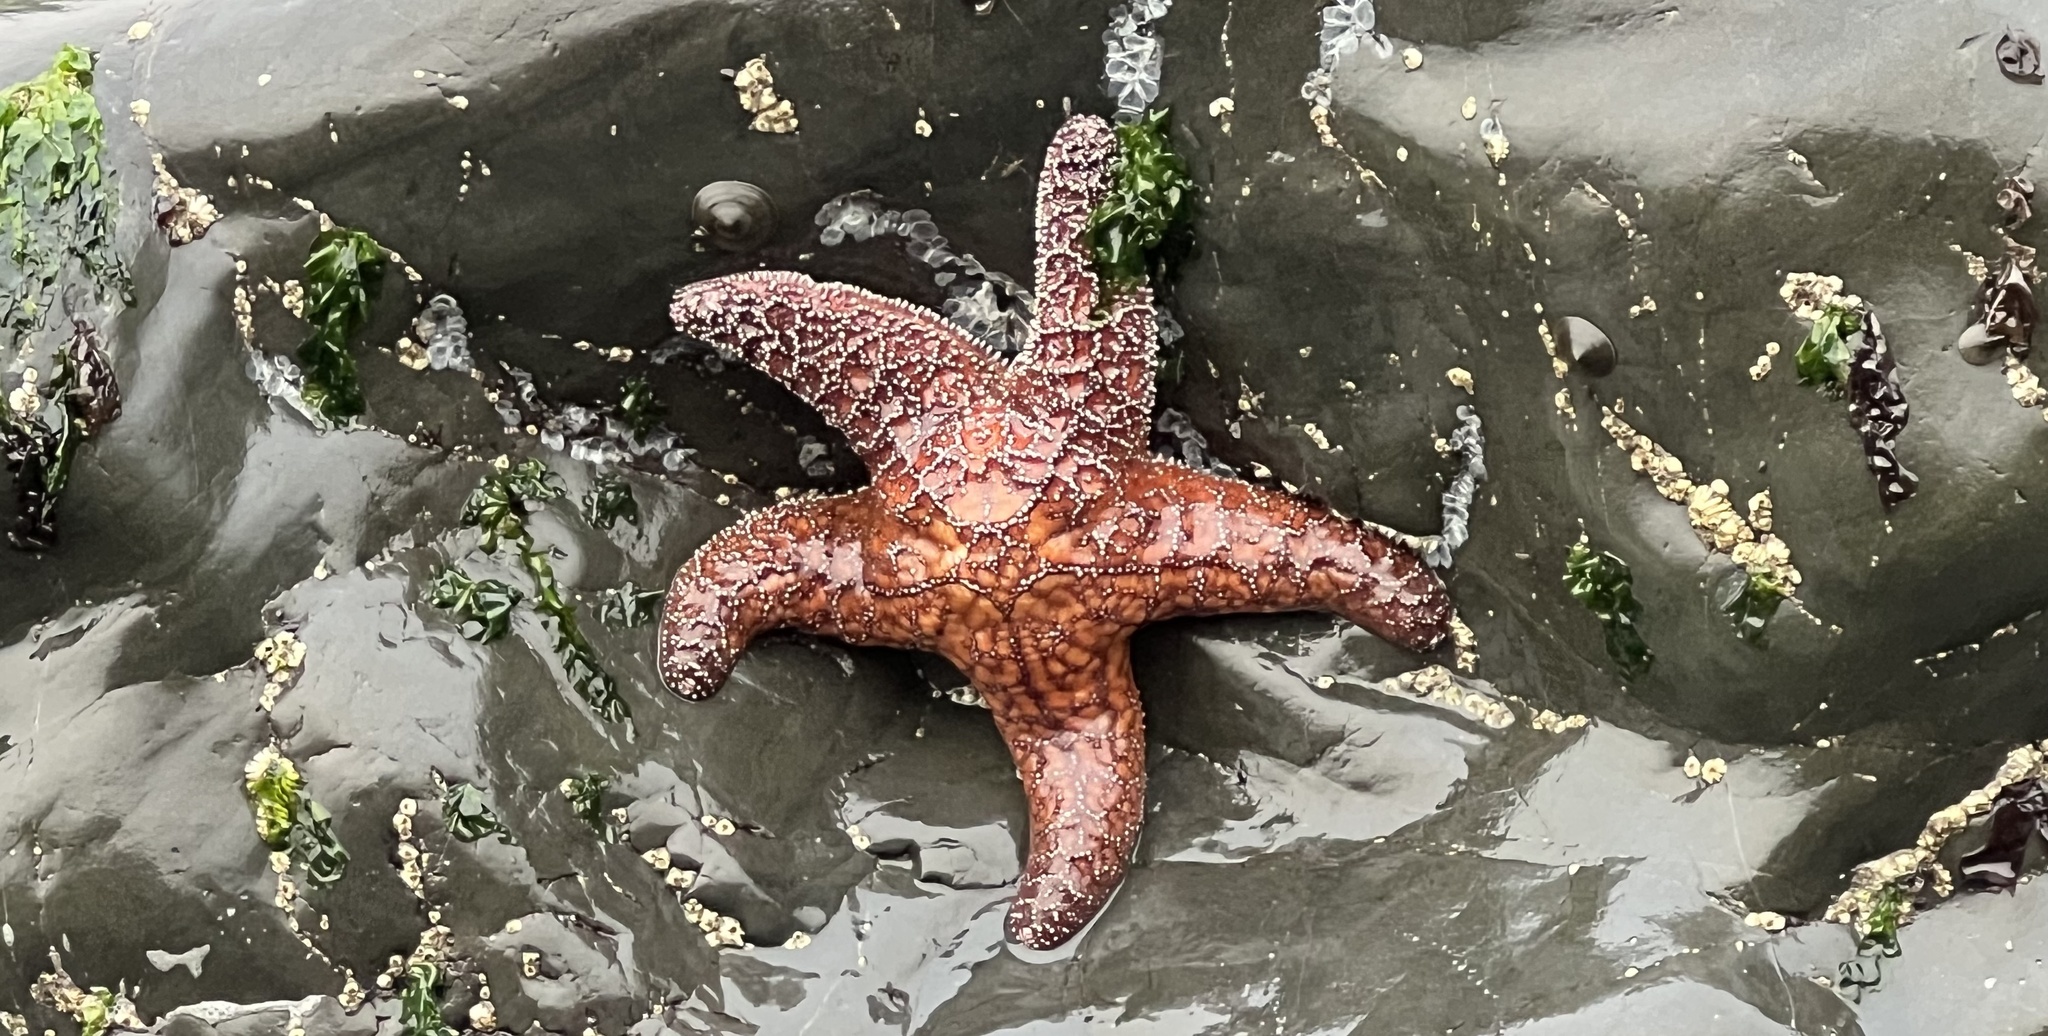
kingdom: Animalia
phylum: Echinodermata
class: Asteroidea
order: Forcipulatida
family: Asteriidae
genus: Pisaster
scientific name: Pisaster ochraceus
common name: Ochre stars
